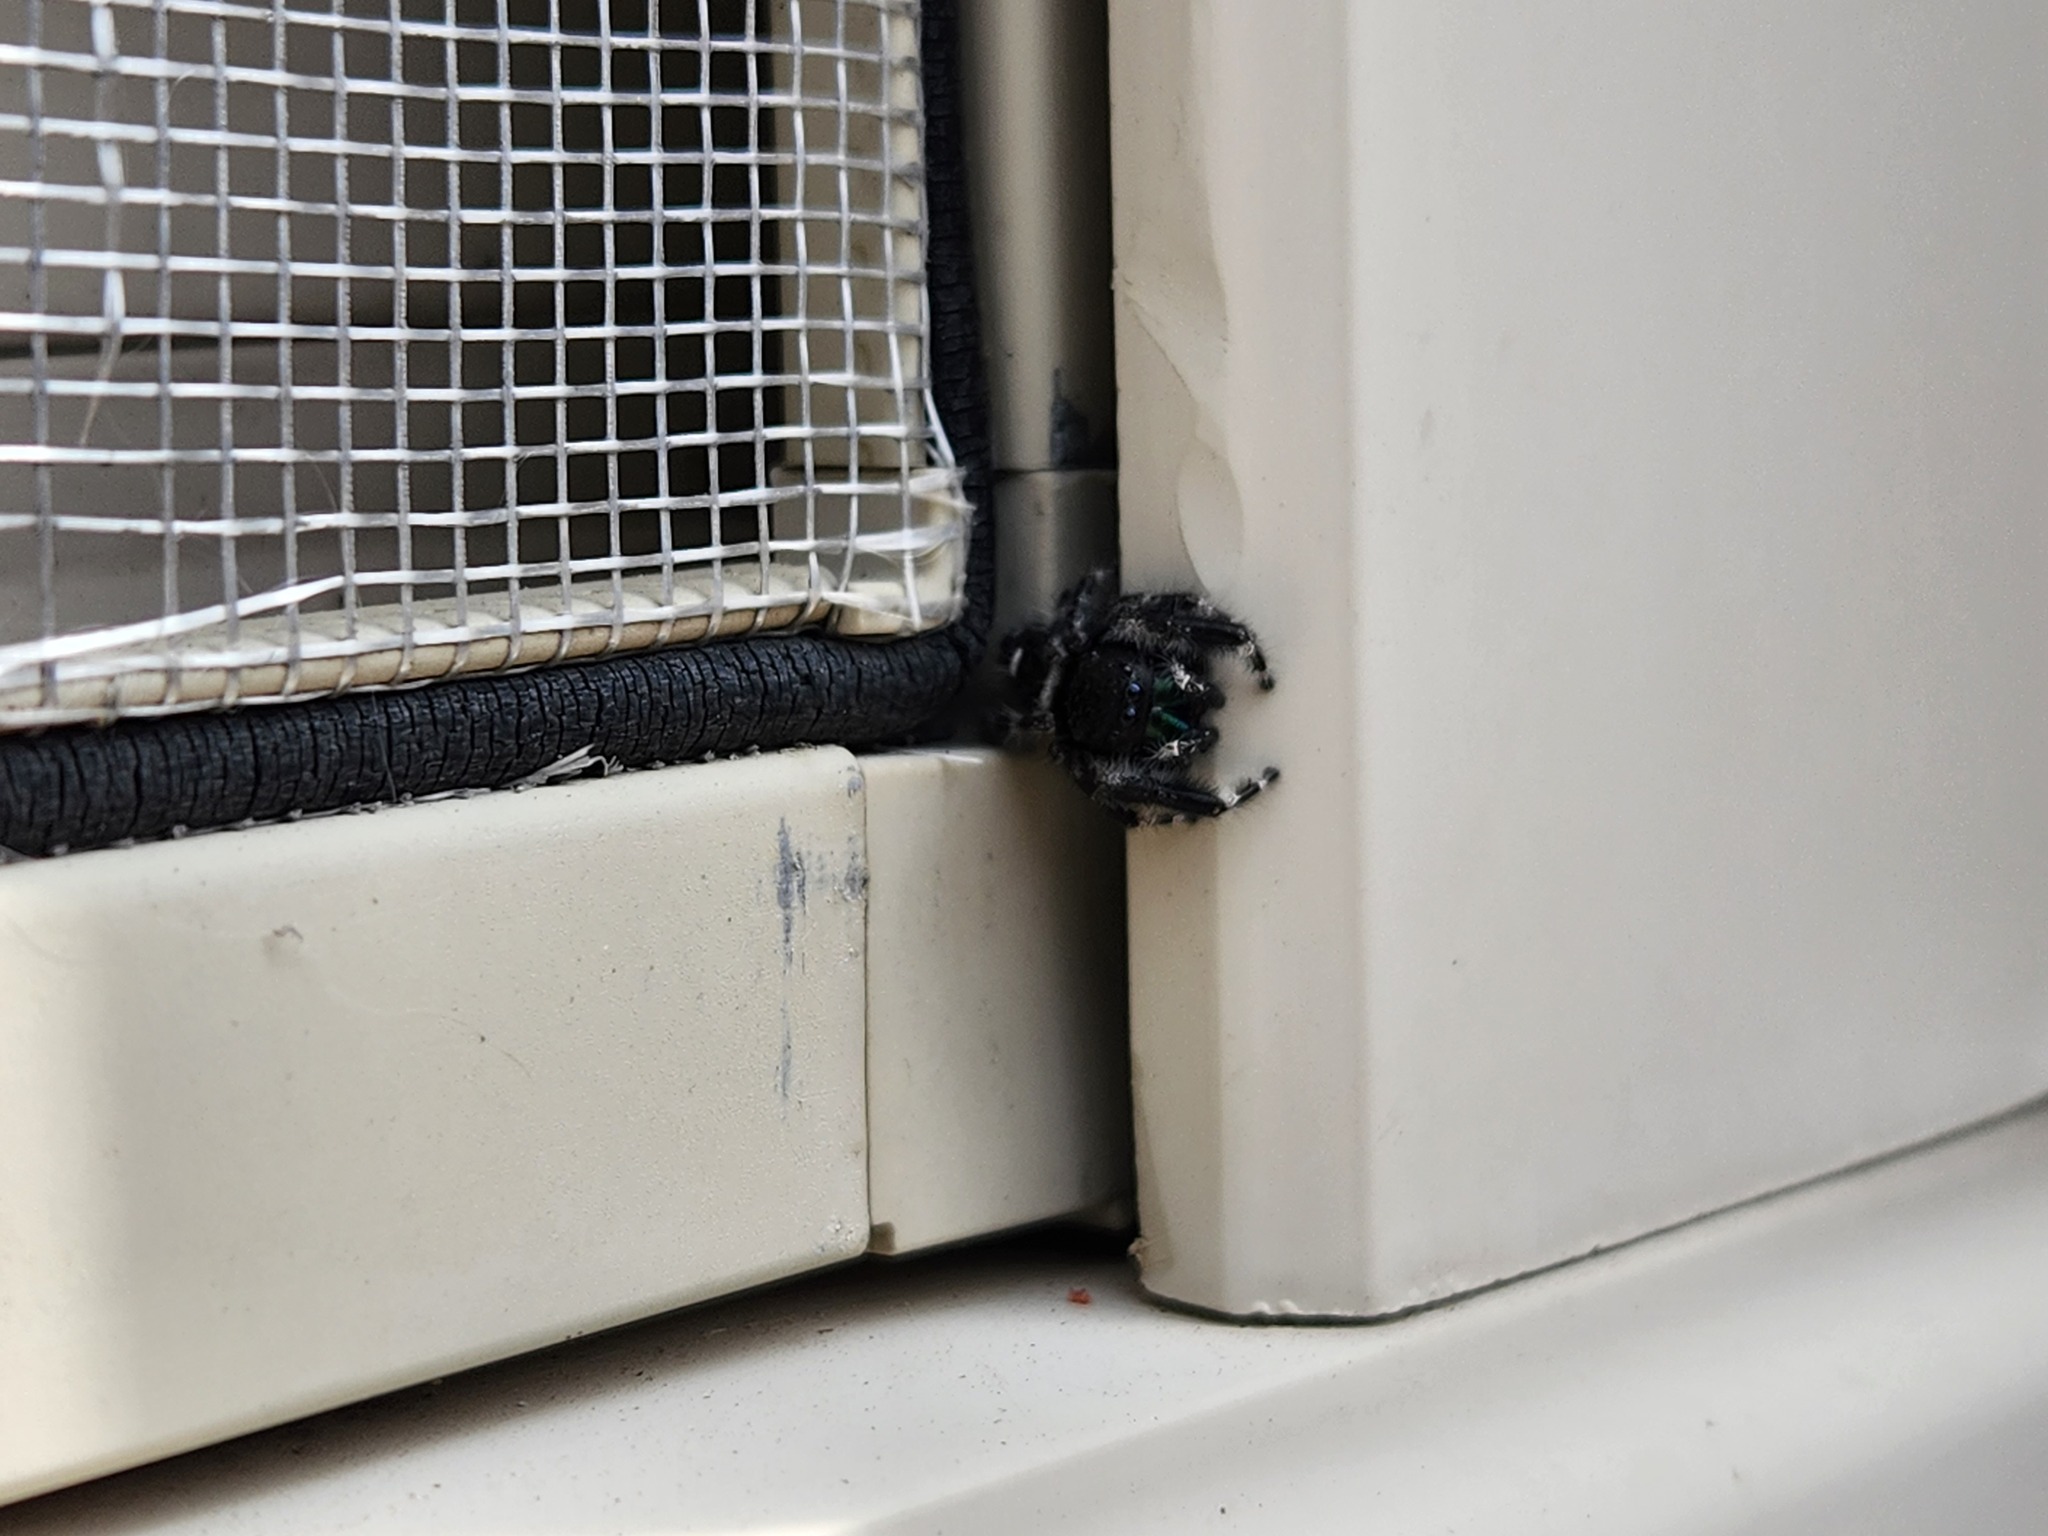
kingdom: Animalia
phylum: Arthropoda
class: Arachnida
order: Araneae
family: Salticidae
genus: Phidippus
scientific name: Phidippus audax
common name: Bold jumper
